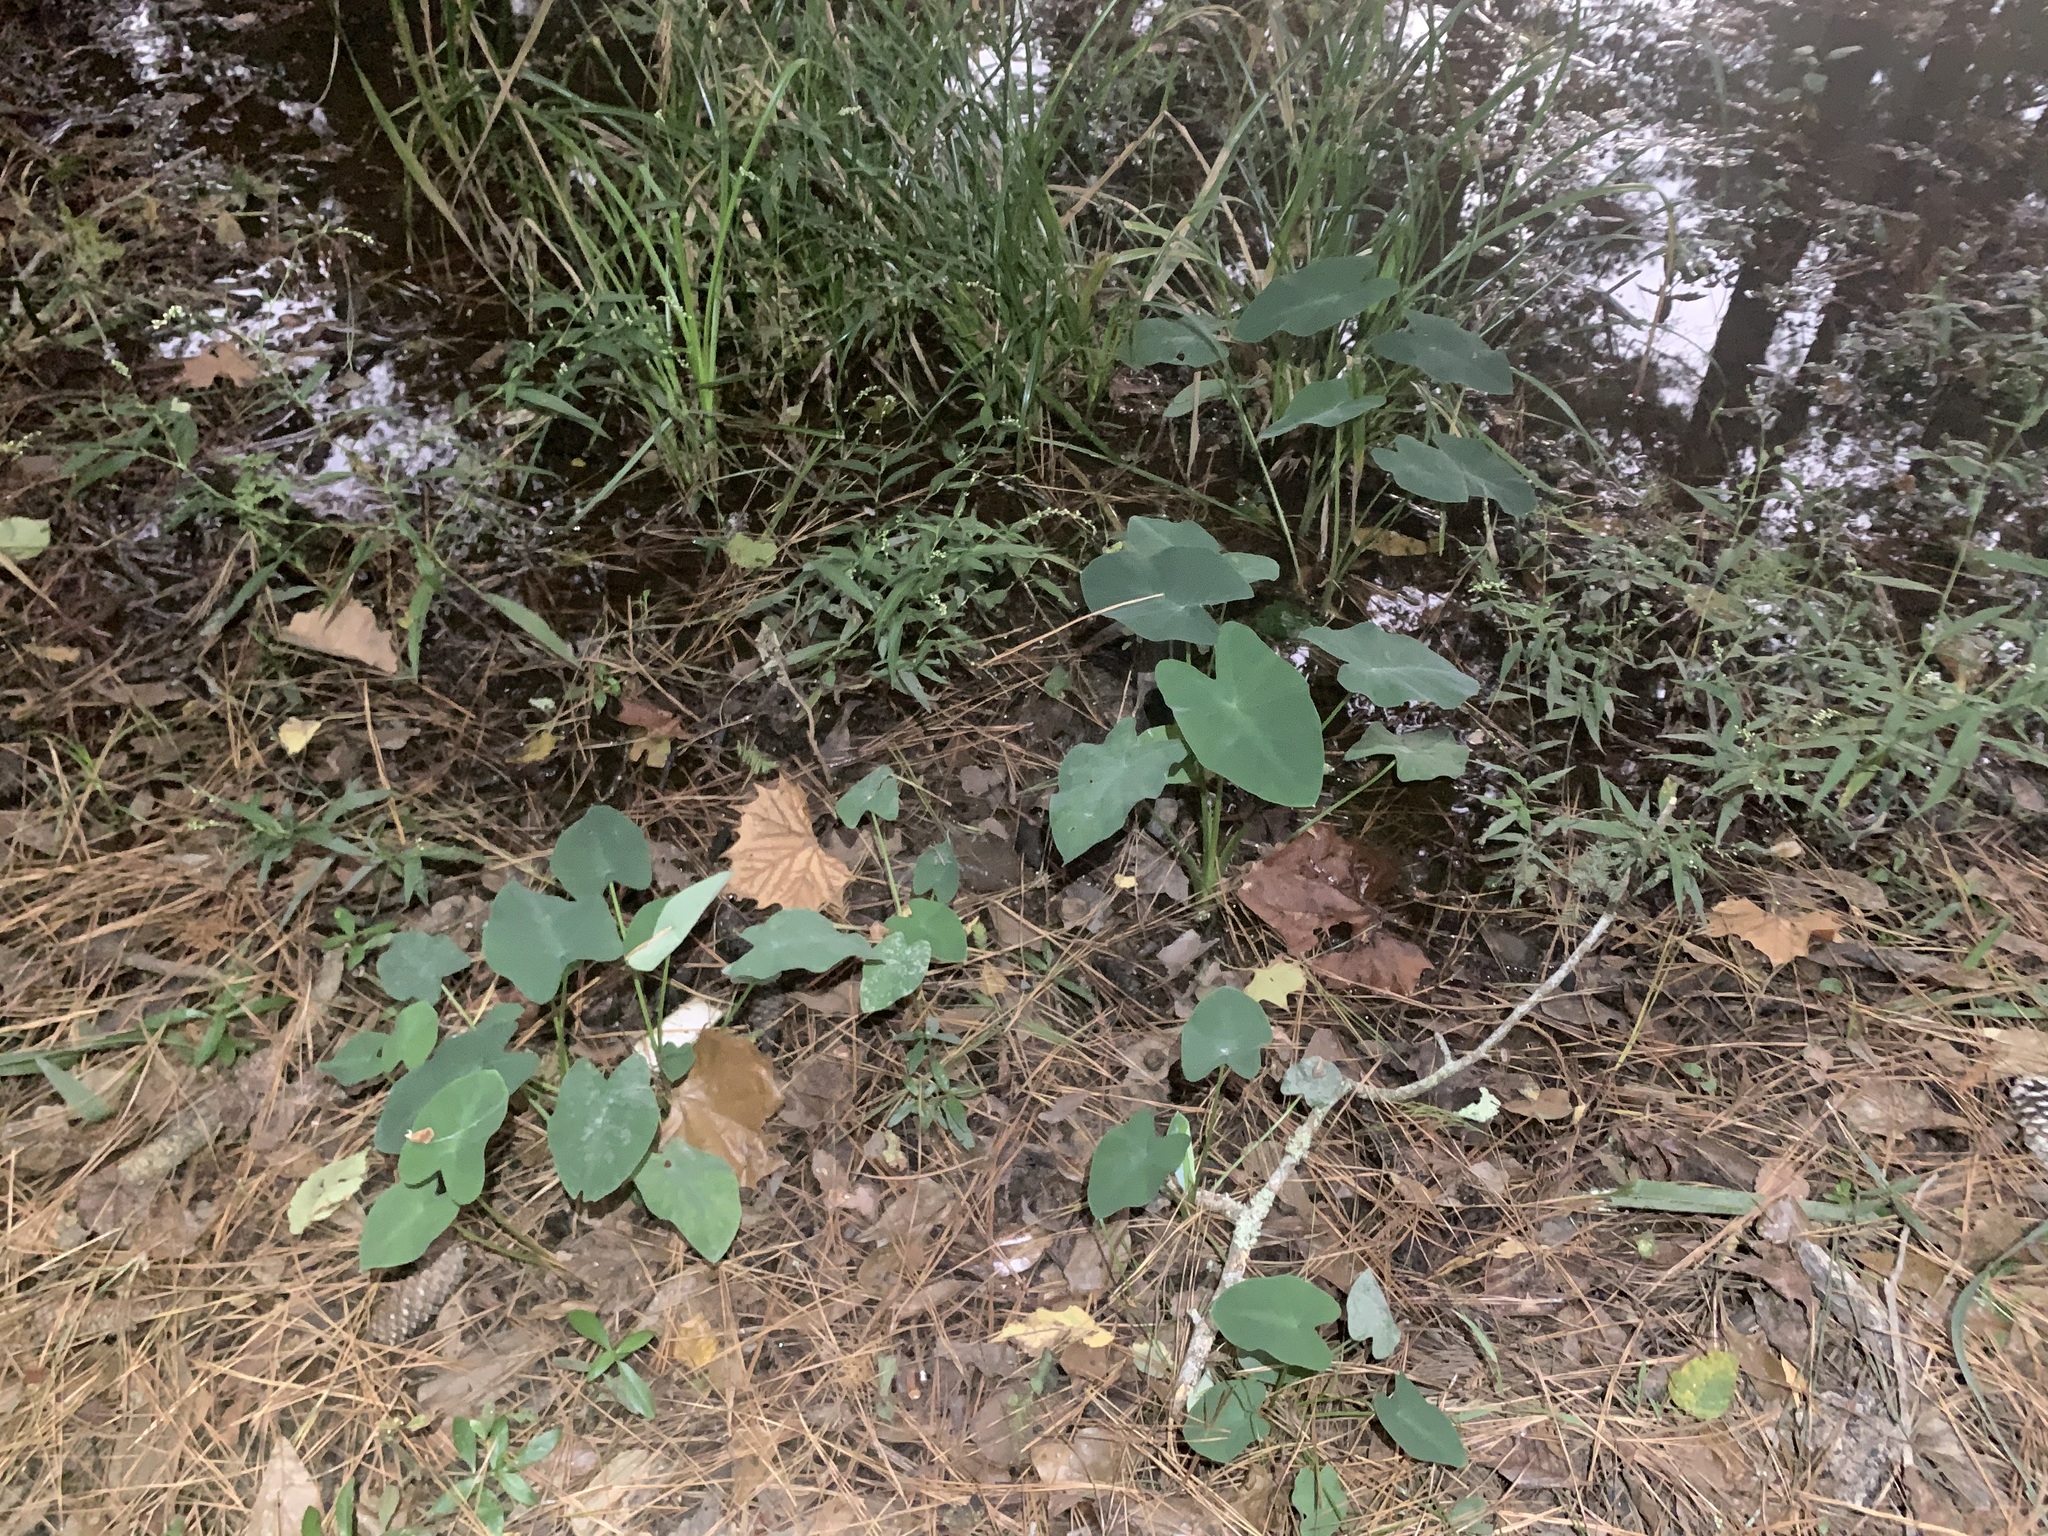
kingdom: Plantae
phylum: Tracheophyta
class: Liliopsida
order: Alismatales
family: Araceae
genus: Colocasia
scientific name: Colocasia esculenta
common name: Taro
